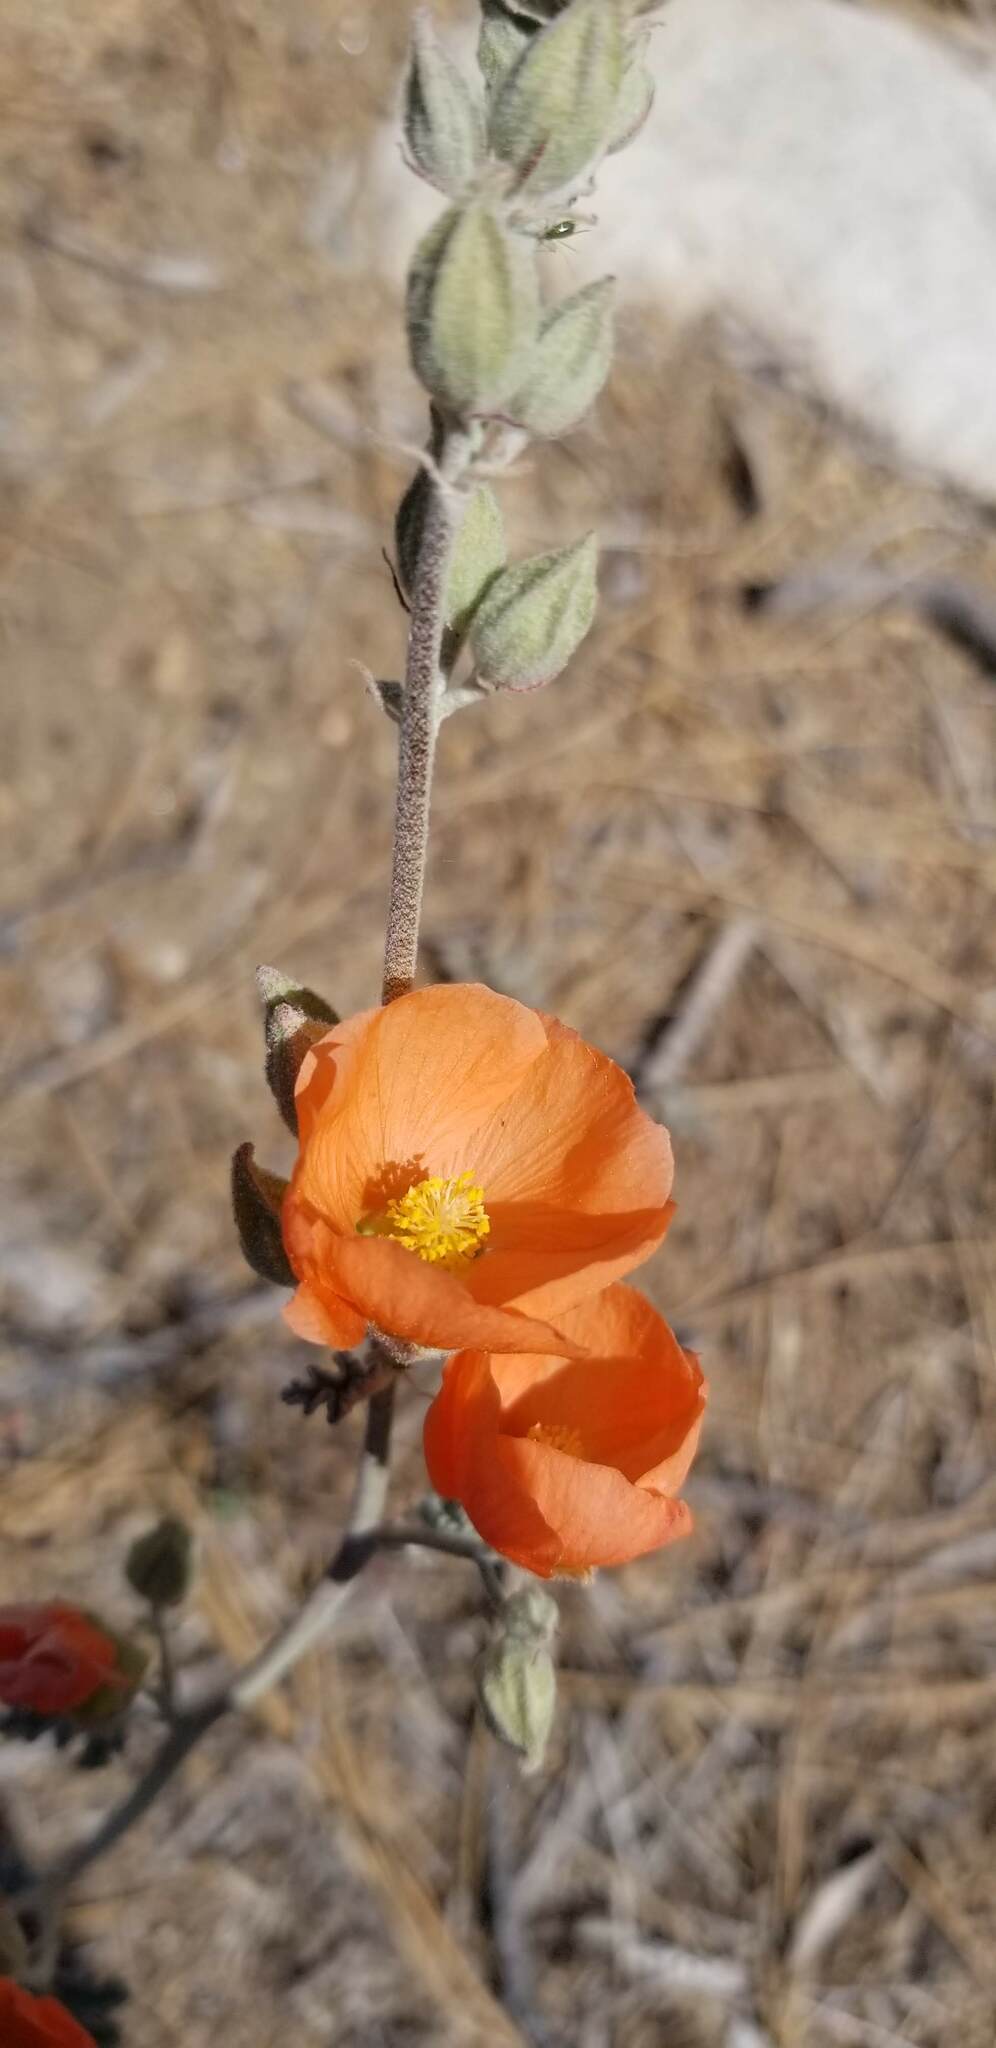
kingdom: Plantae
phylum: Tracheophyta
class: Magnoliopsida
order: Malvales
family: Malvaceae
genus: Sphaeralcea
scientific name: Sphaeralcea ambigua
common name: Apricot globe-mallow
